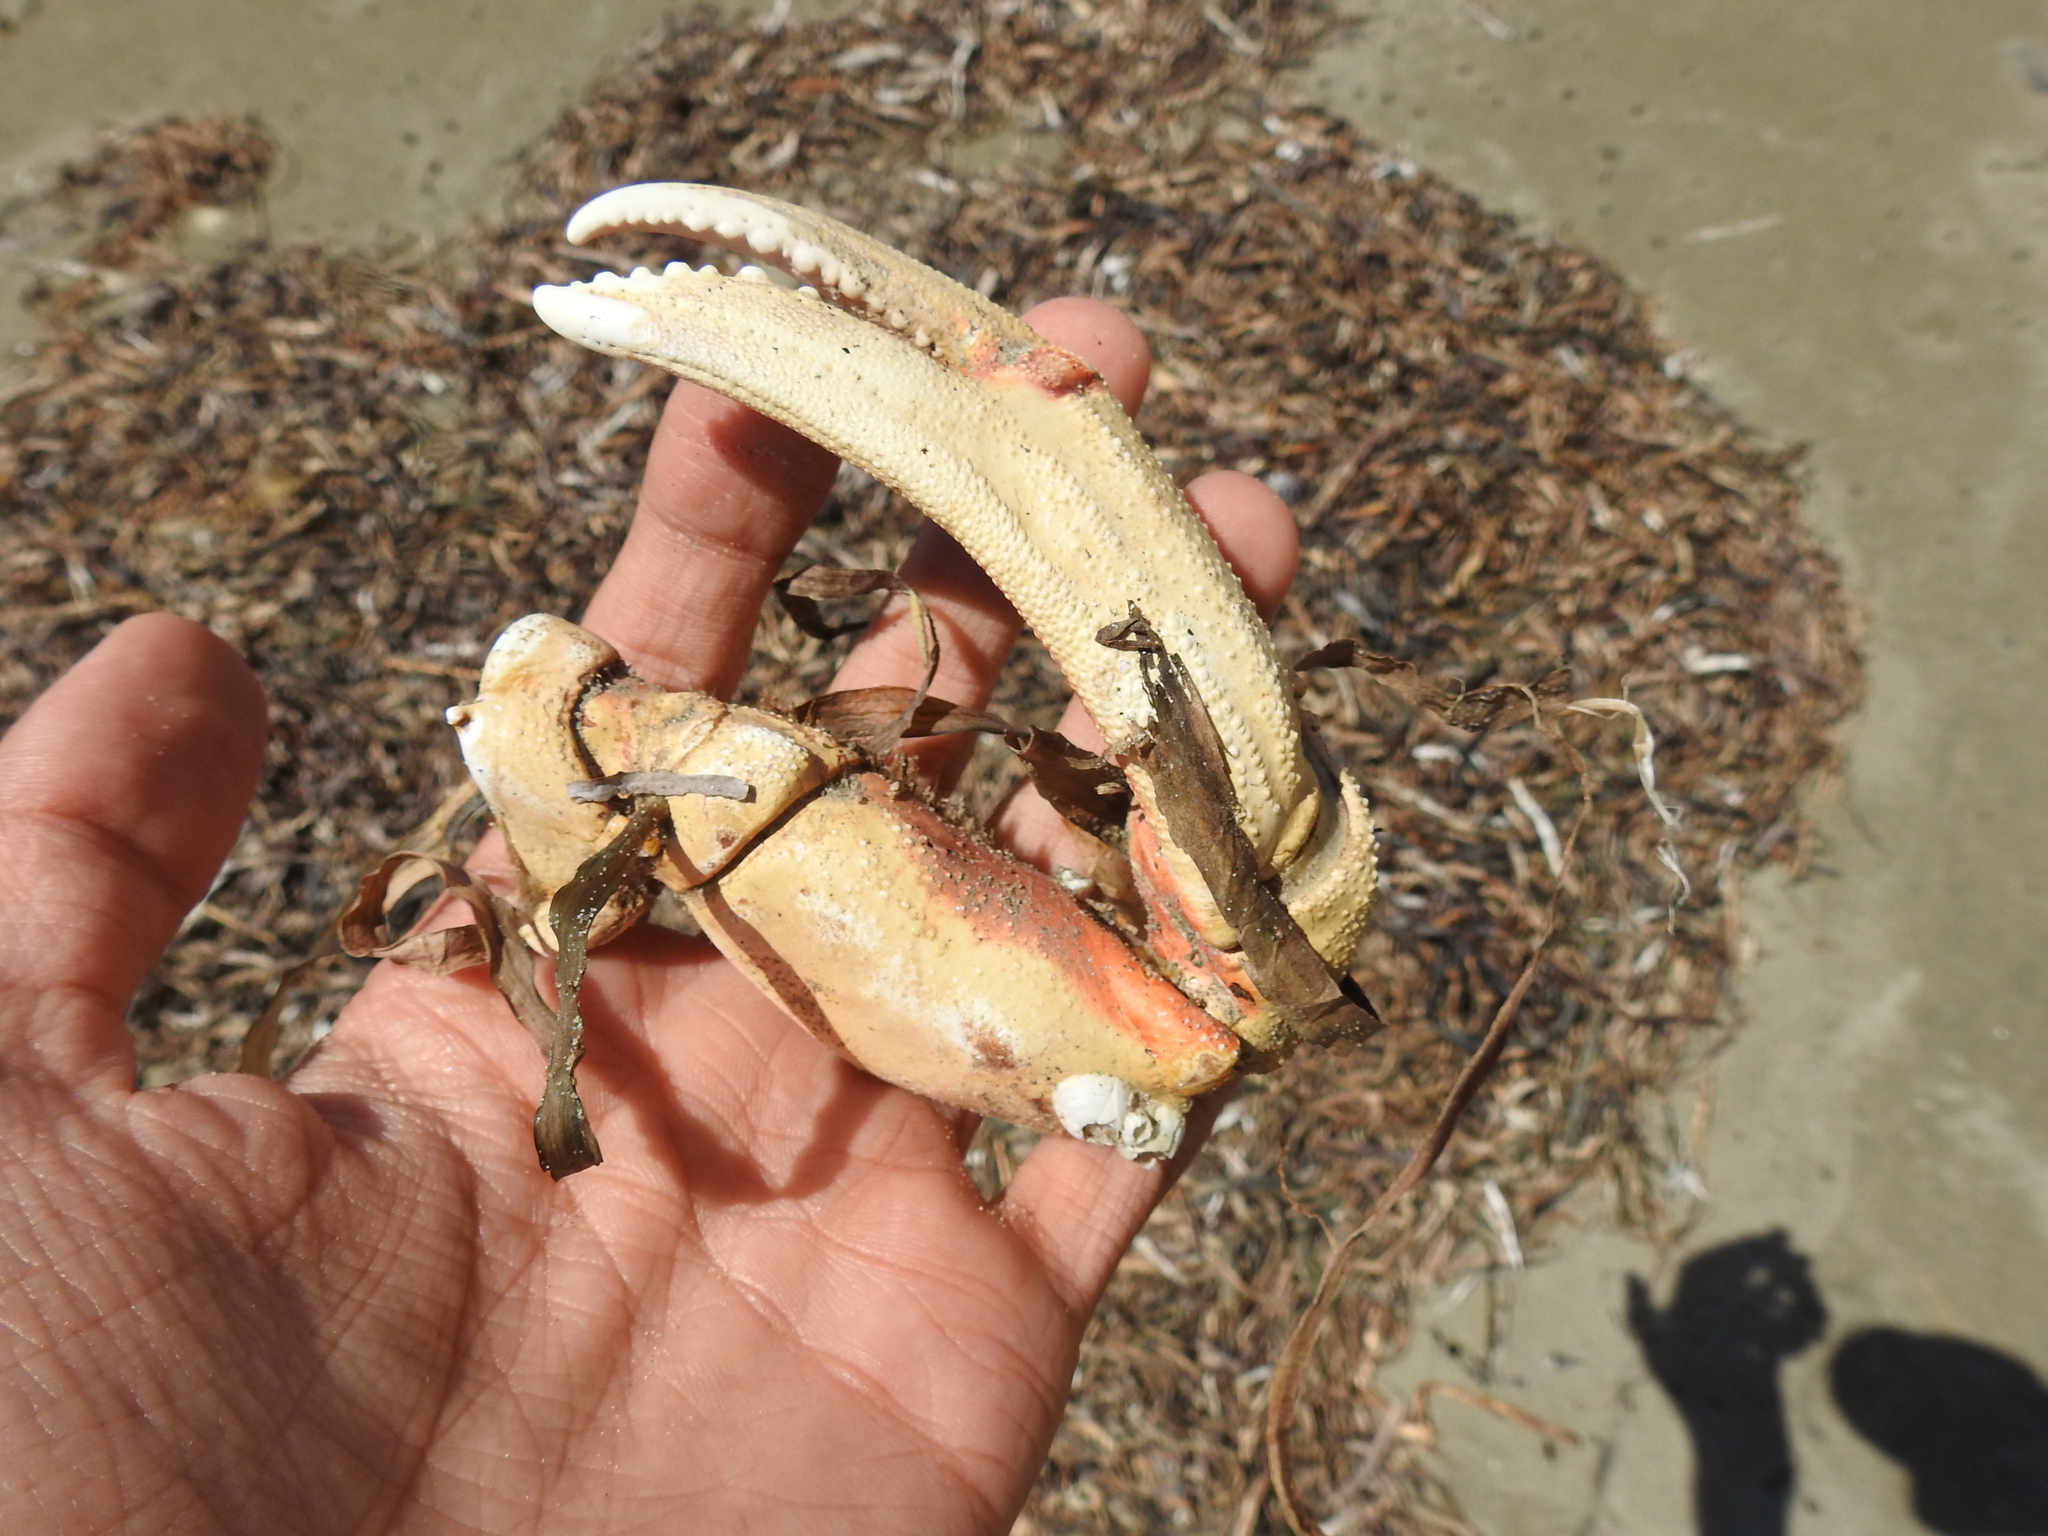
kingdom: Animalia
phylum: Arthropoda
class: Malacostraca
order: Decapoda
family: Cancridae
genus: Metacarcinus
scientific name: Metacarcinus magister
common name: Californian crab
